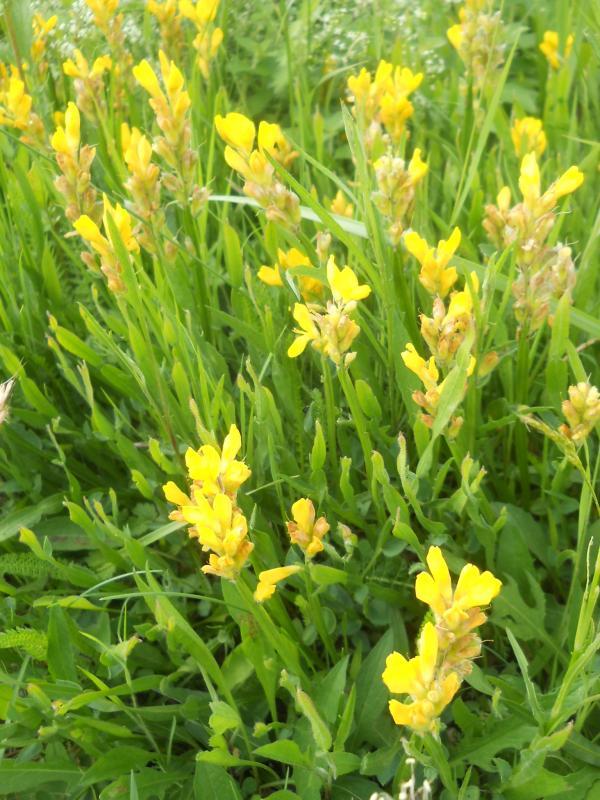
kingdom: Plantae
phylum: Tracheophyta
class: Magnoliopsida
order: Fabales
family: Fabaceae
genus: Genista
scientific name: Genista sagittalis
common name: Winged greenweed
